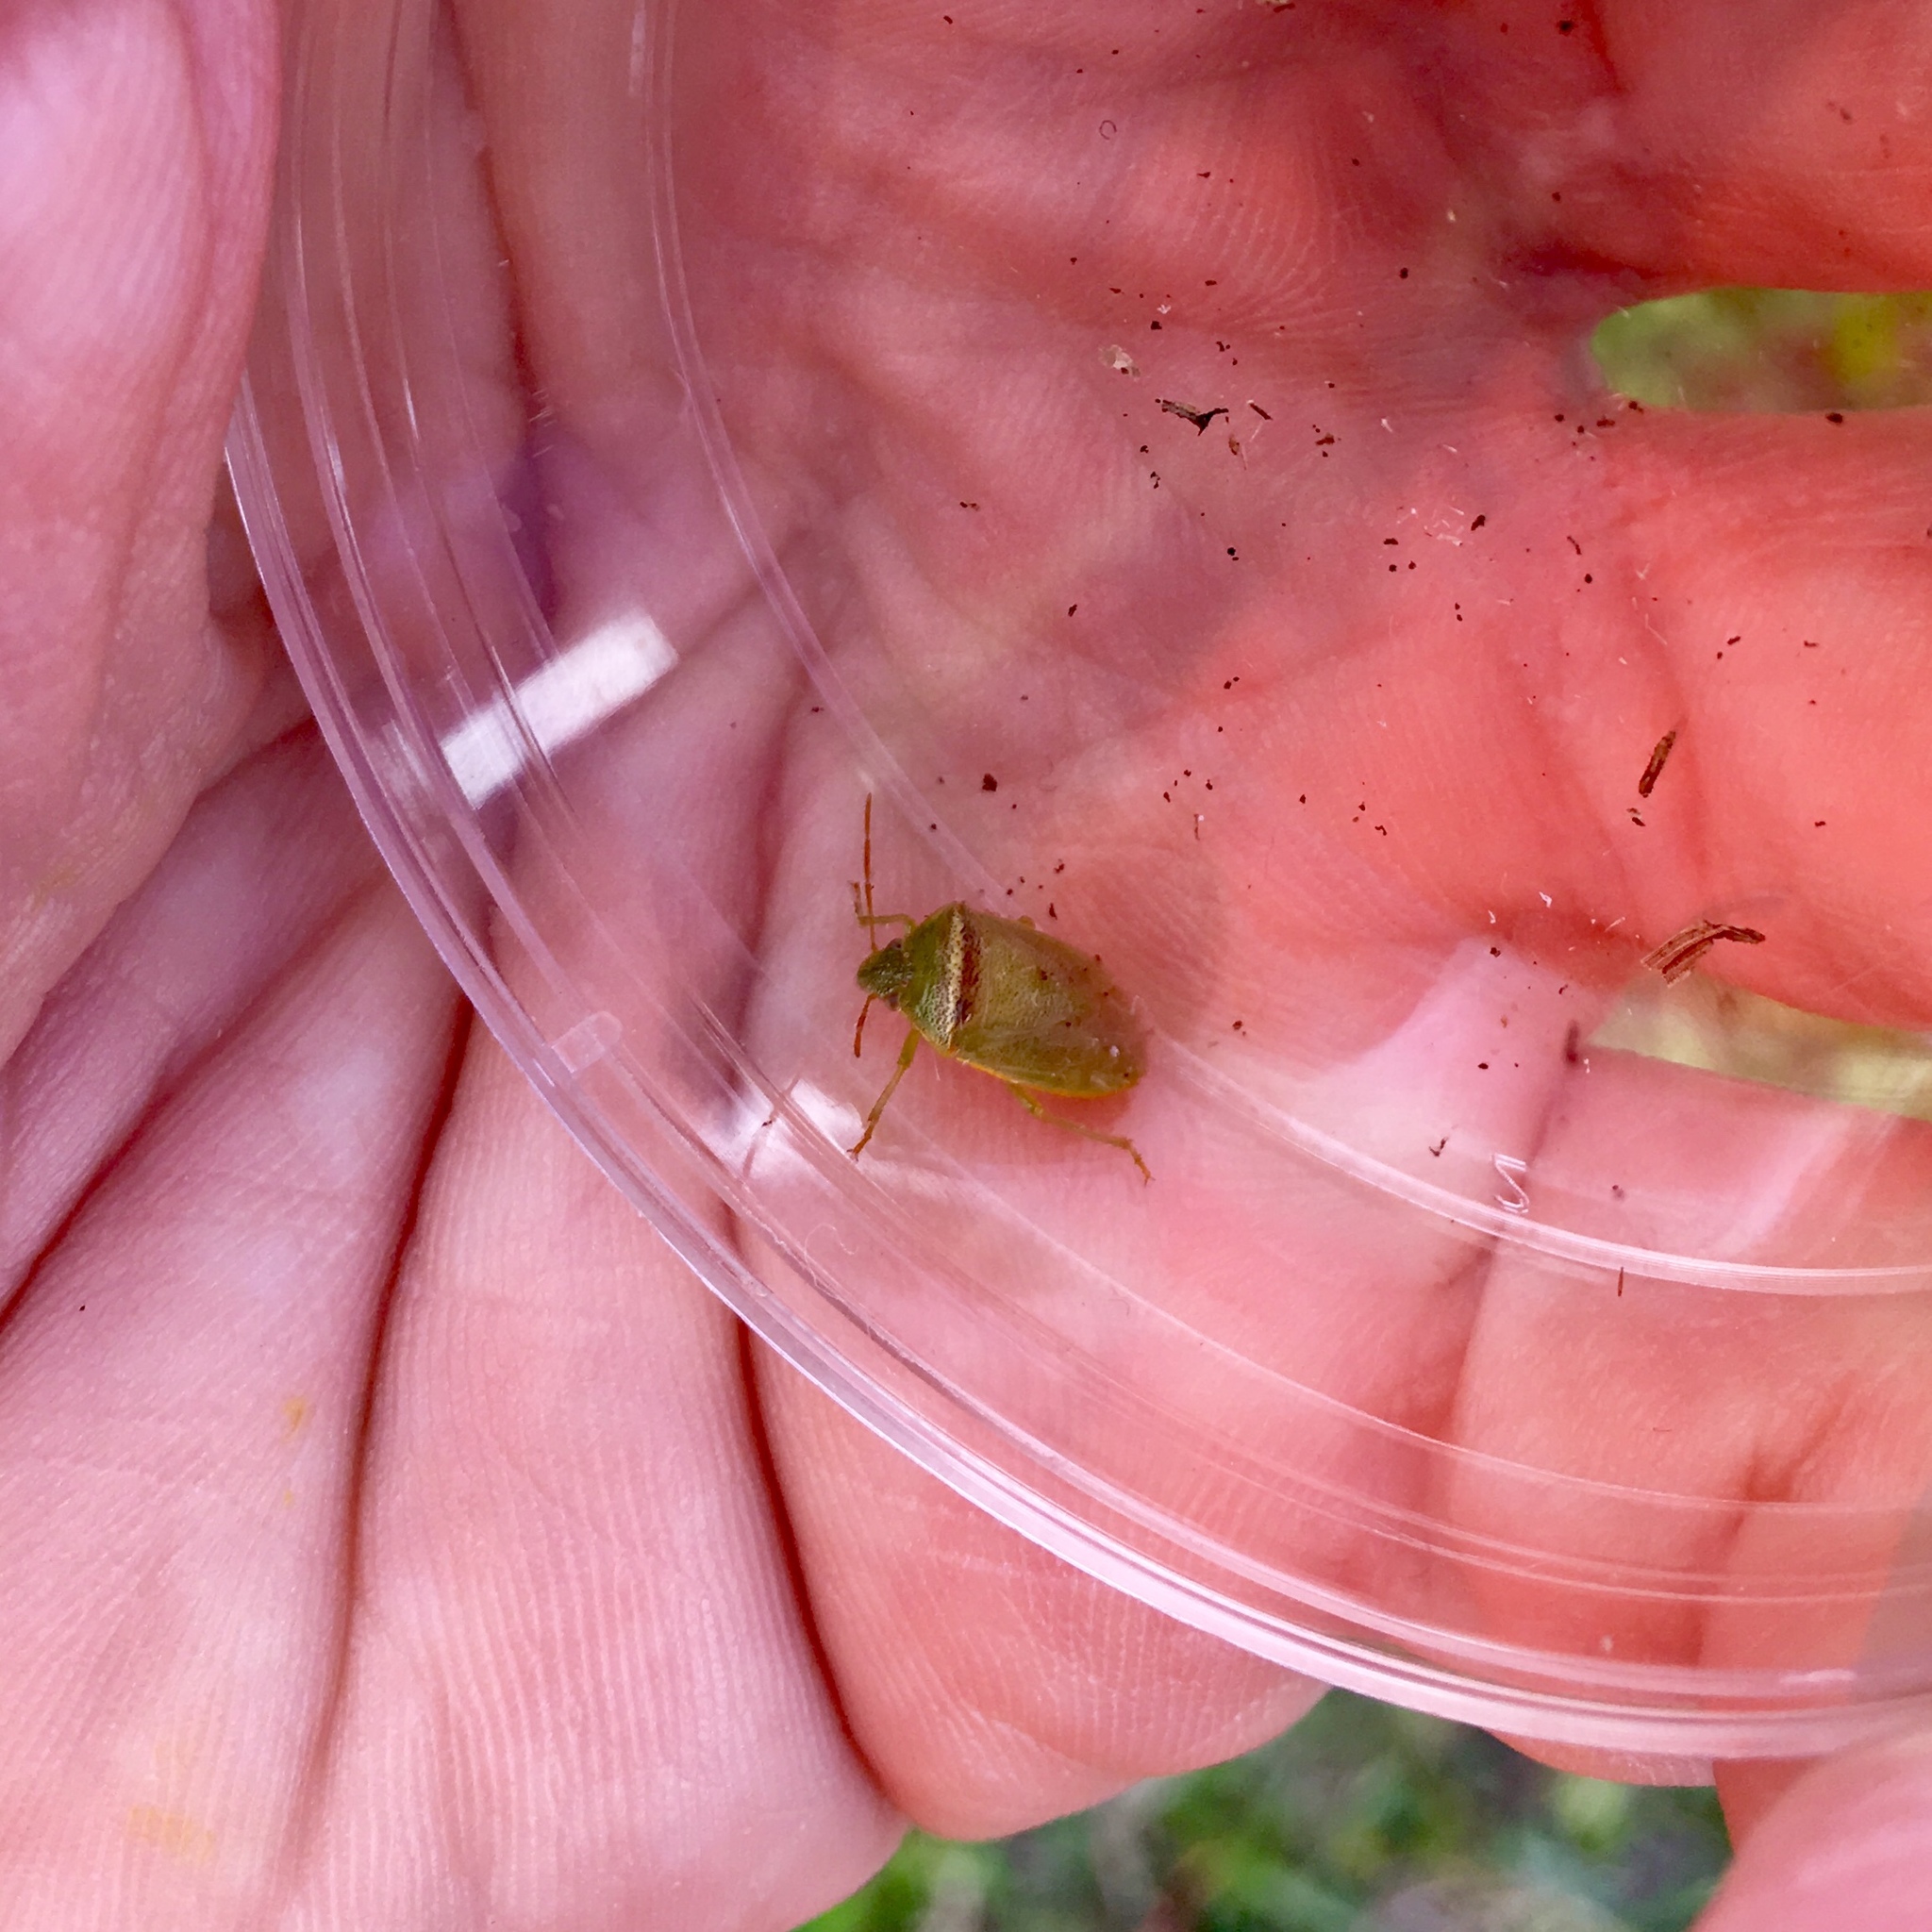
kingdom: Animalia
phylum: Arthropoda
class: Insecta
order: Hemiptera
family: Pentatomidae
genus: Piezodorus
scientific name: Piezodorus guildinii
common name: Redbanded stink bug
